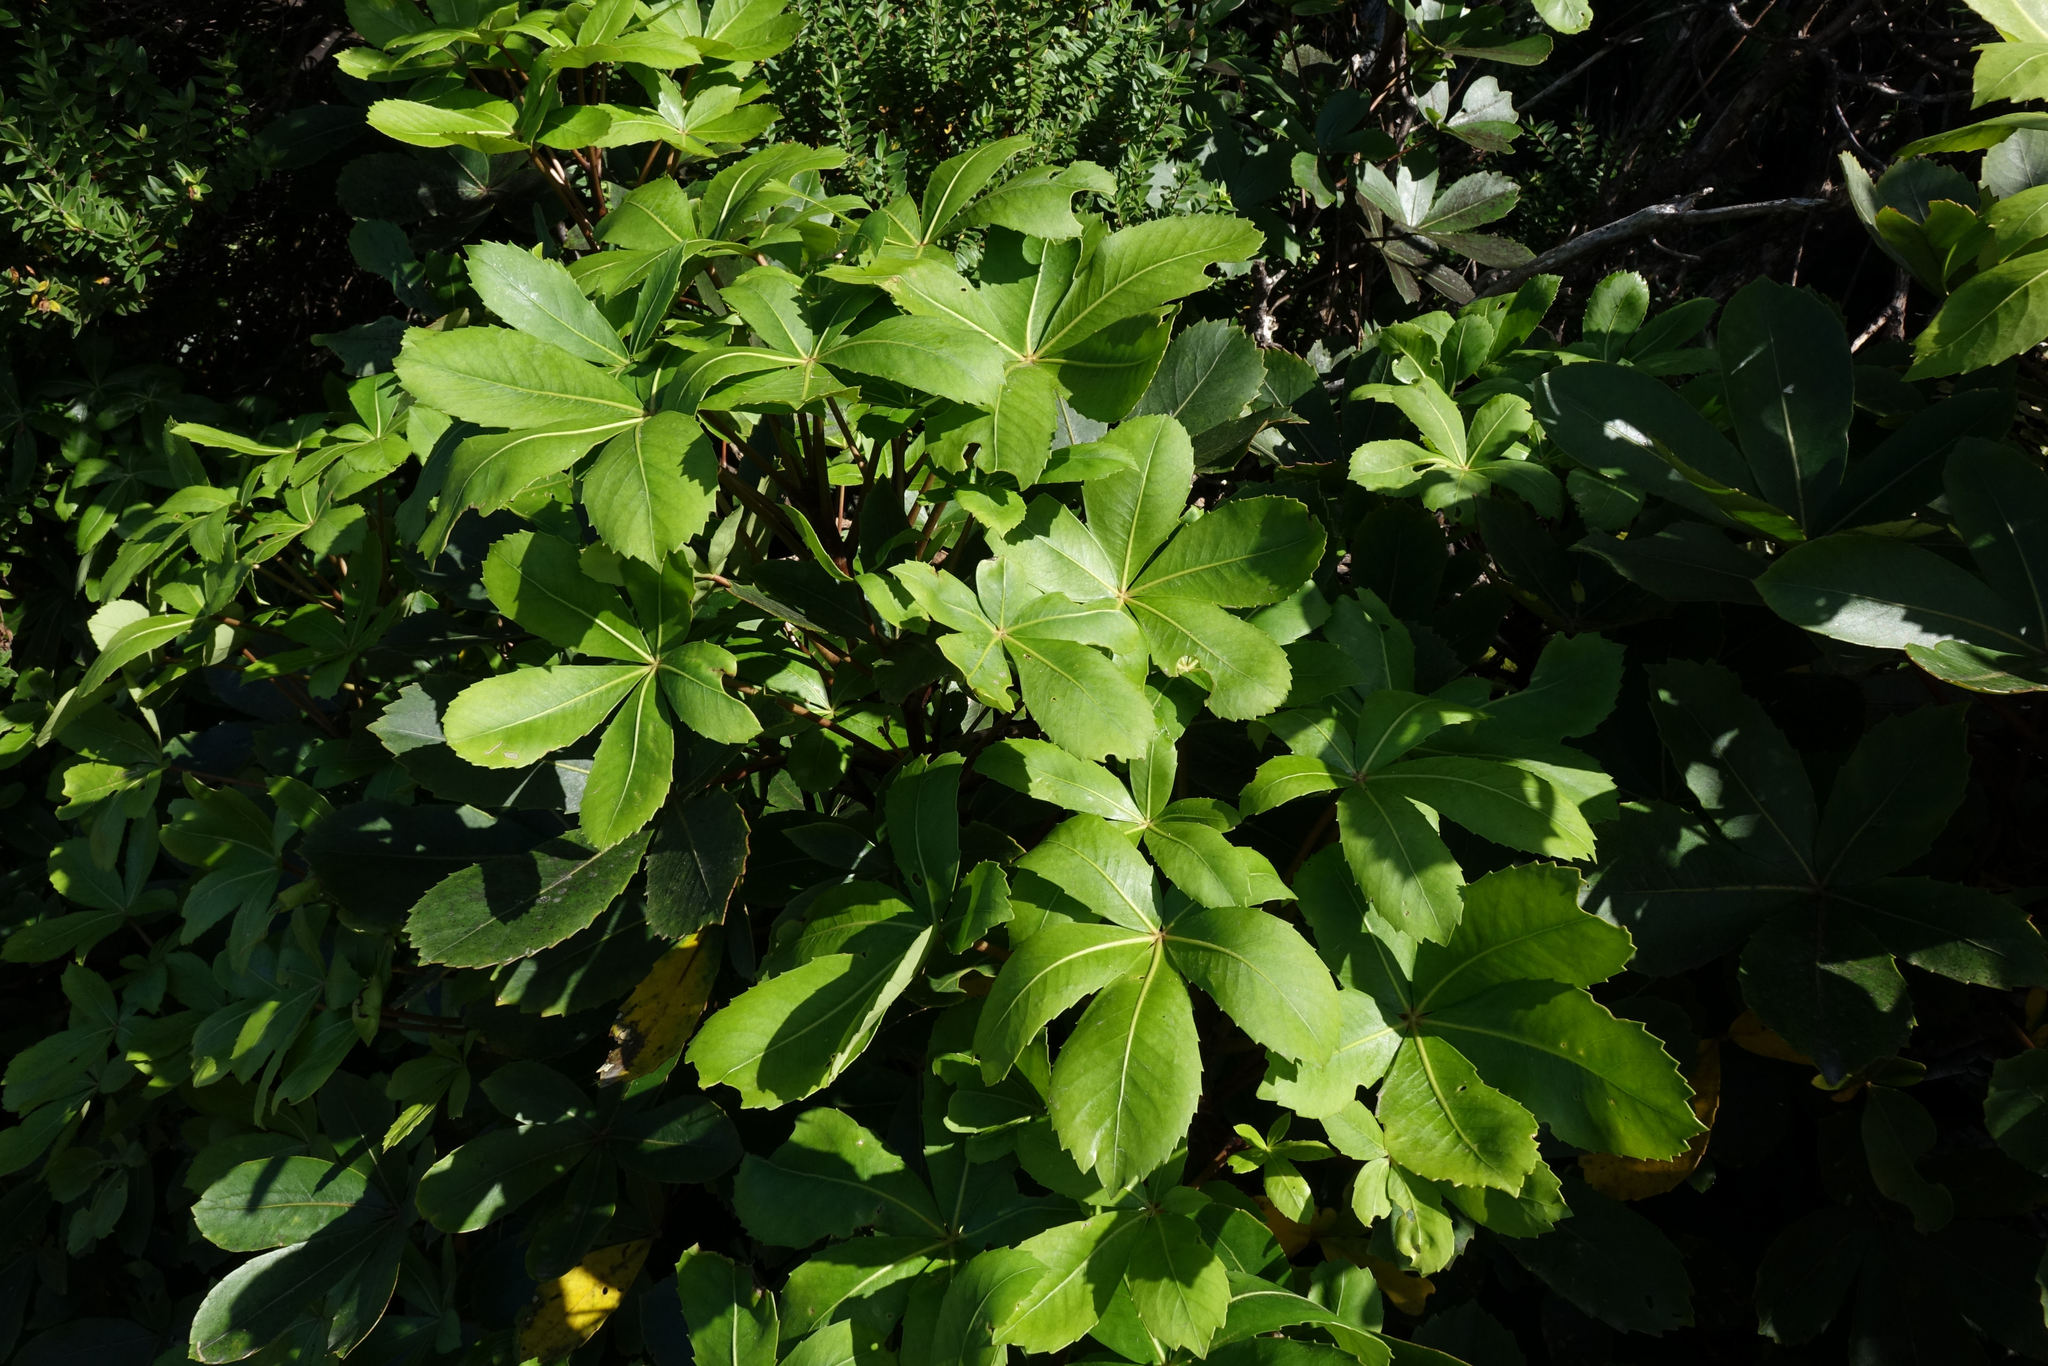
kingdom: Plantae
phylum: Tracheophyta
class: Magnoliopsida
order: Apiales
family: Araliaceae
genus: Neopanax
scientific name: Neopanax colensoi
